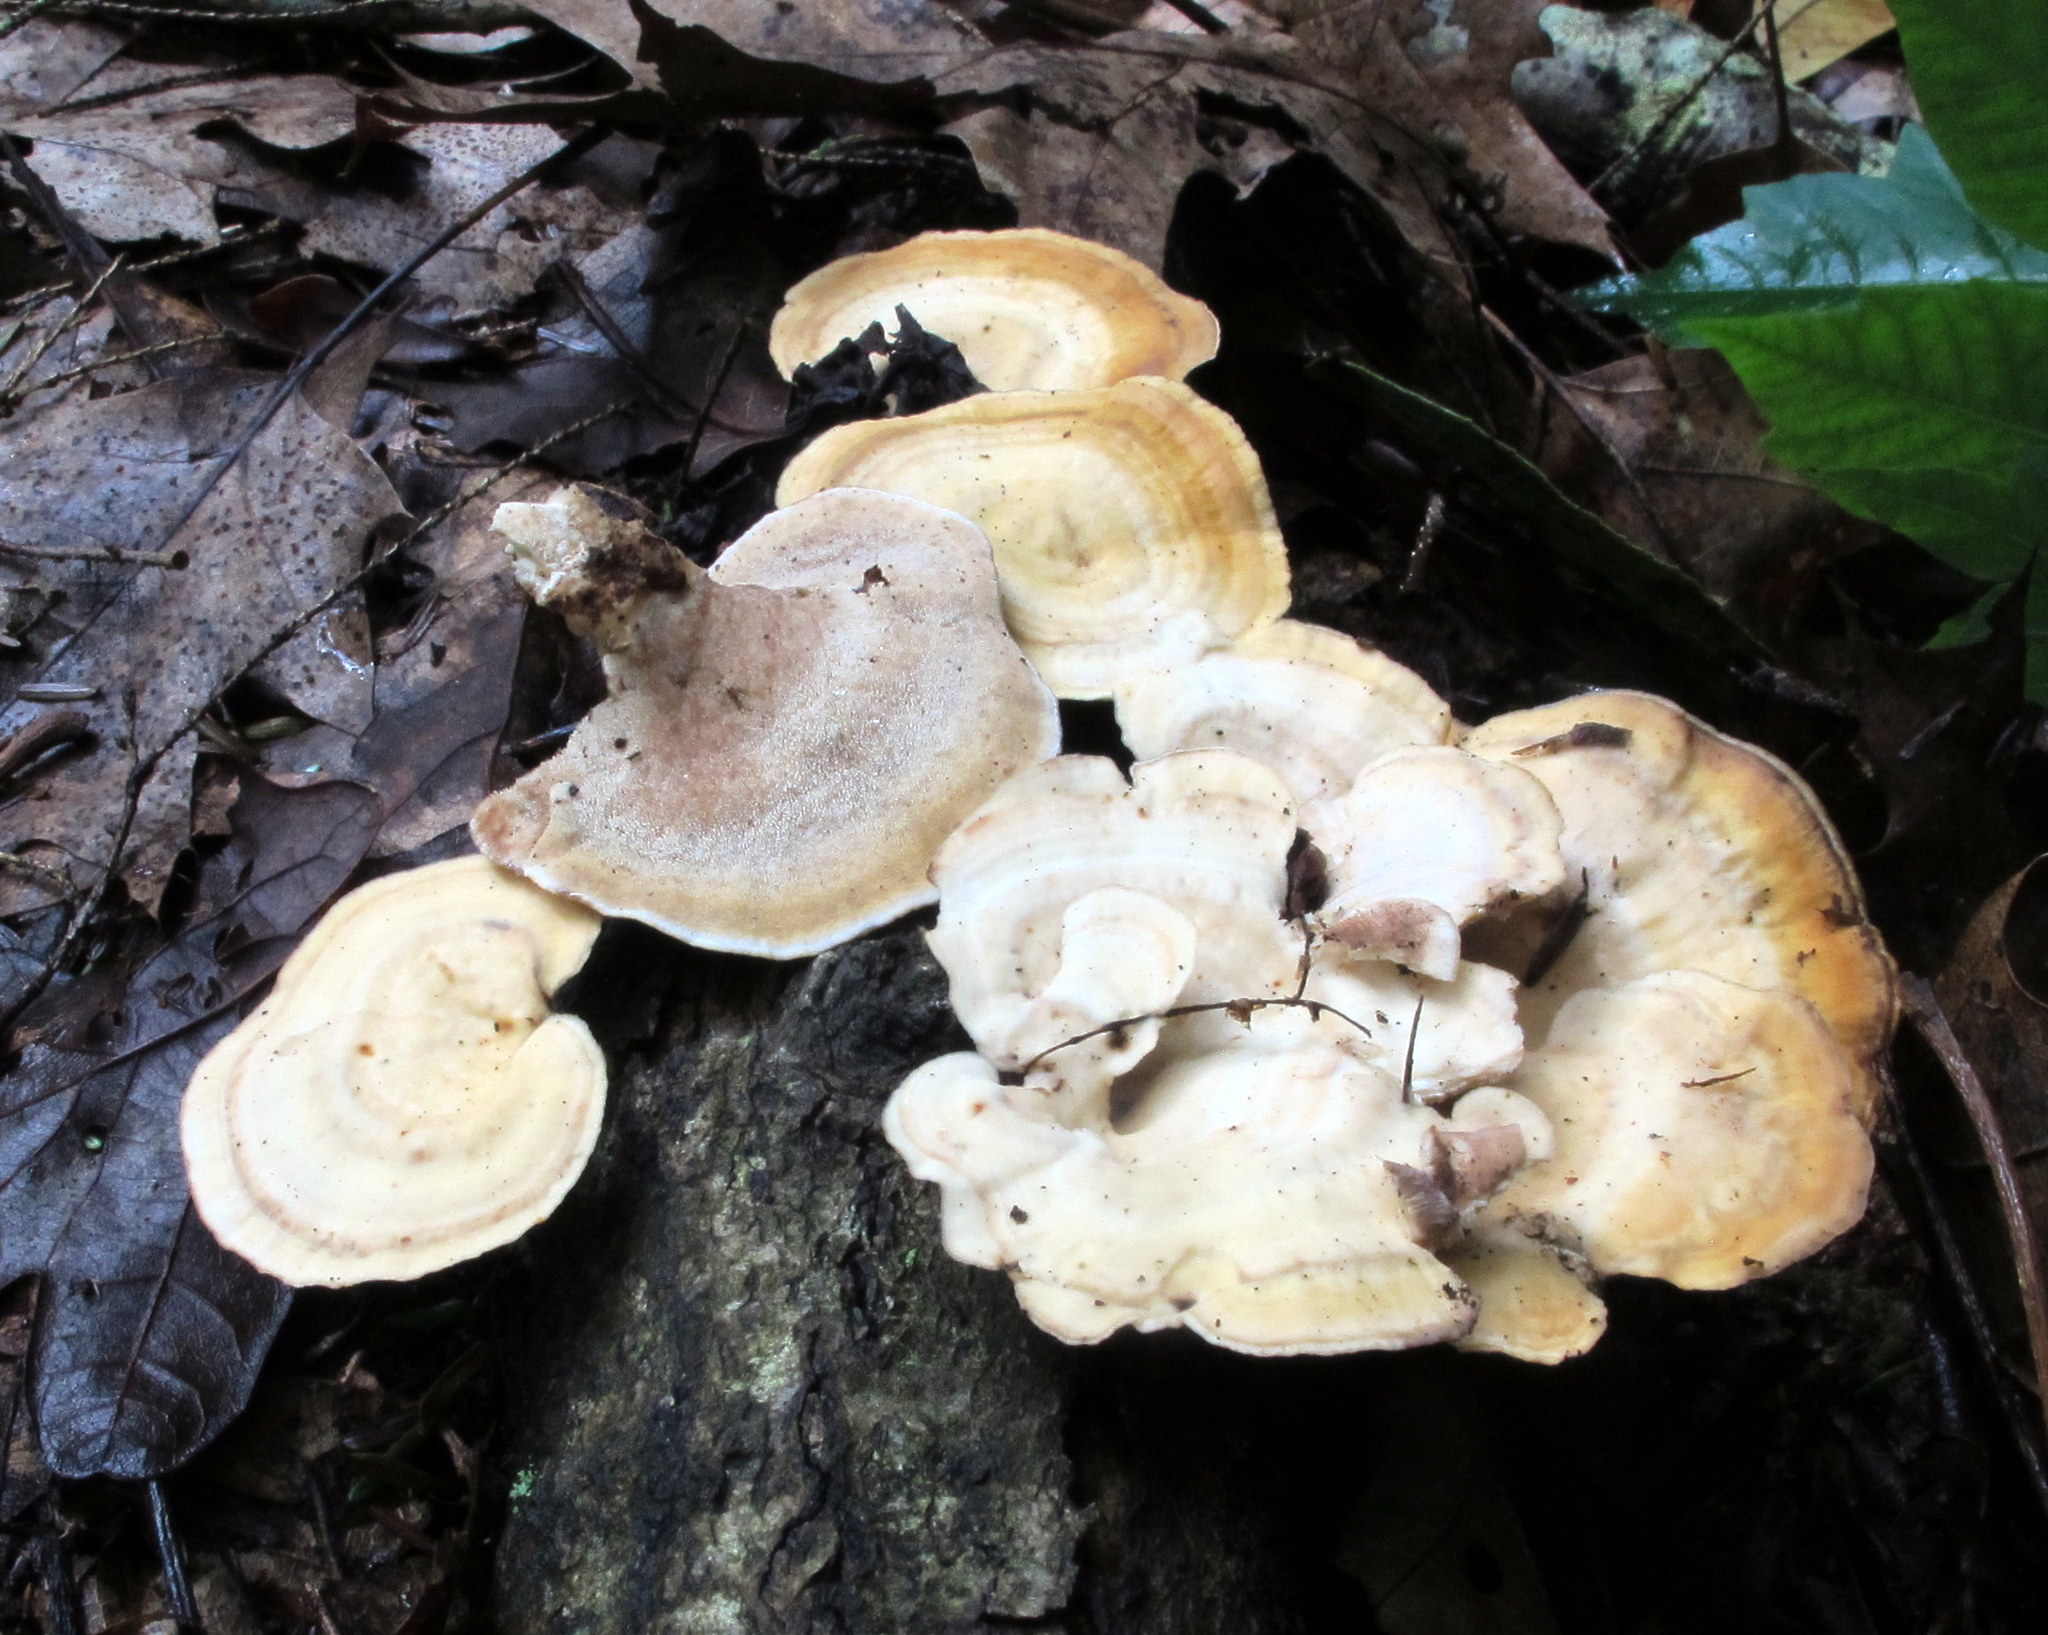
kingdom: Fungi
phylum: Basidiomycota
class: Agaricomycetes
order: Polyporales
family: Steccherinaceae
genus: Mycorrhaphium
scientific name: Mycorrhaphium adustum
